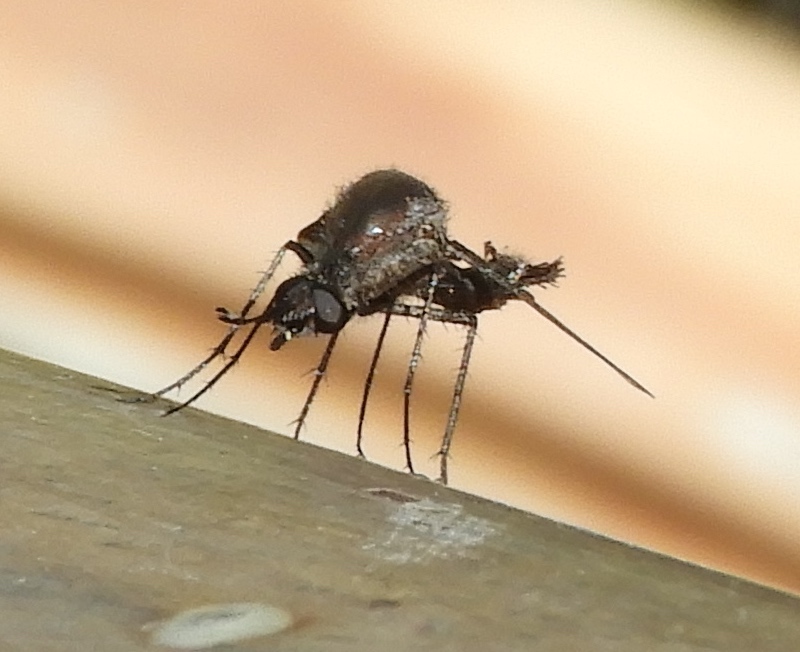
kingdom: Animalia
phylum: Arthropoda
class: Insecta
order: Diptera
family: Bombyliidae
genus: Lepidophora
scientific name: Lepidophora vetusta
